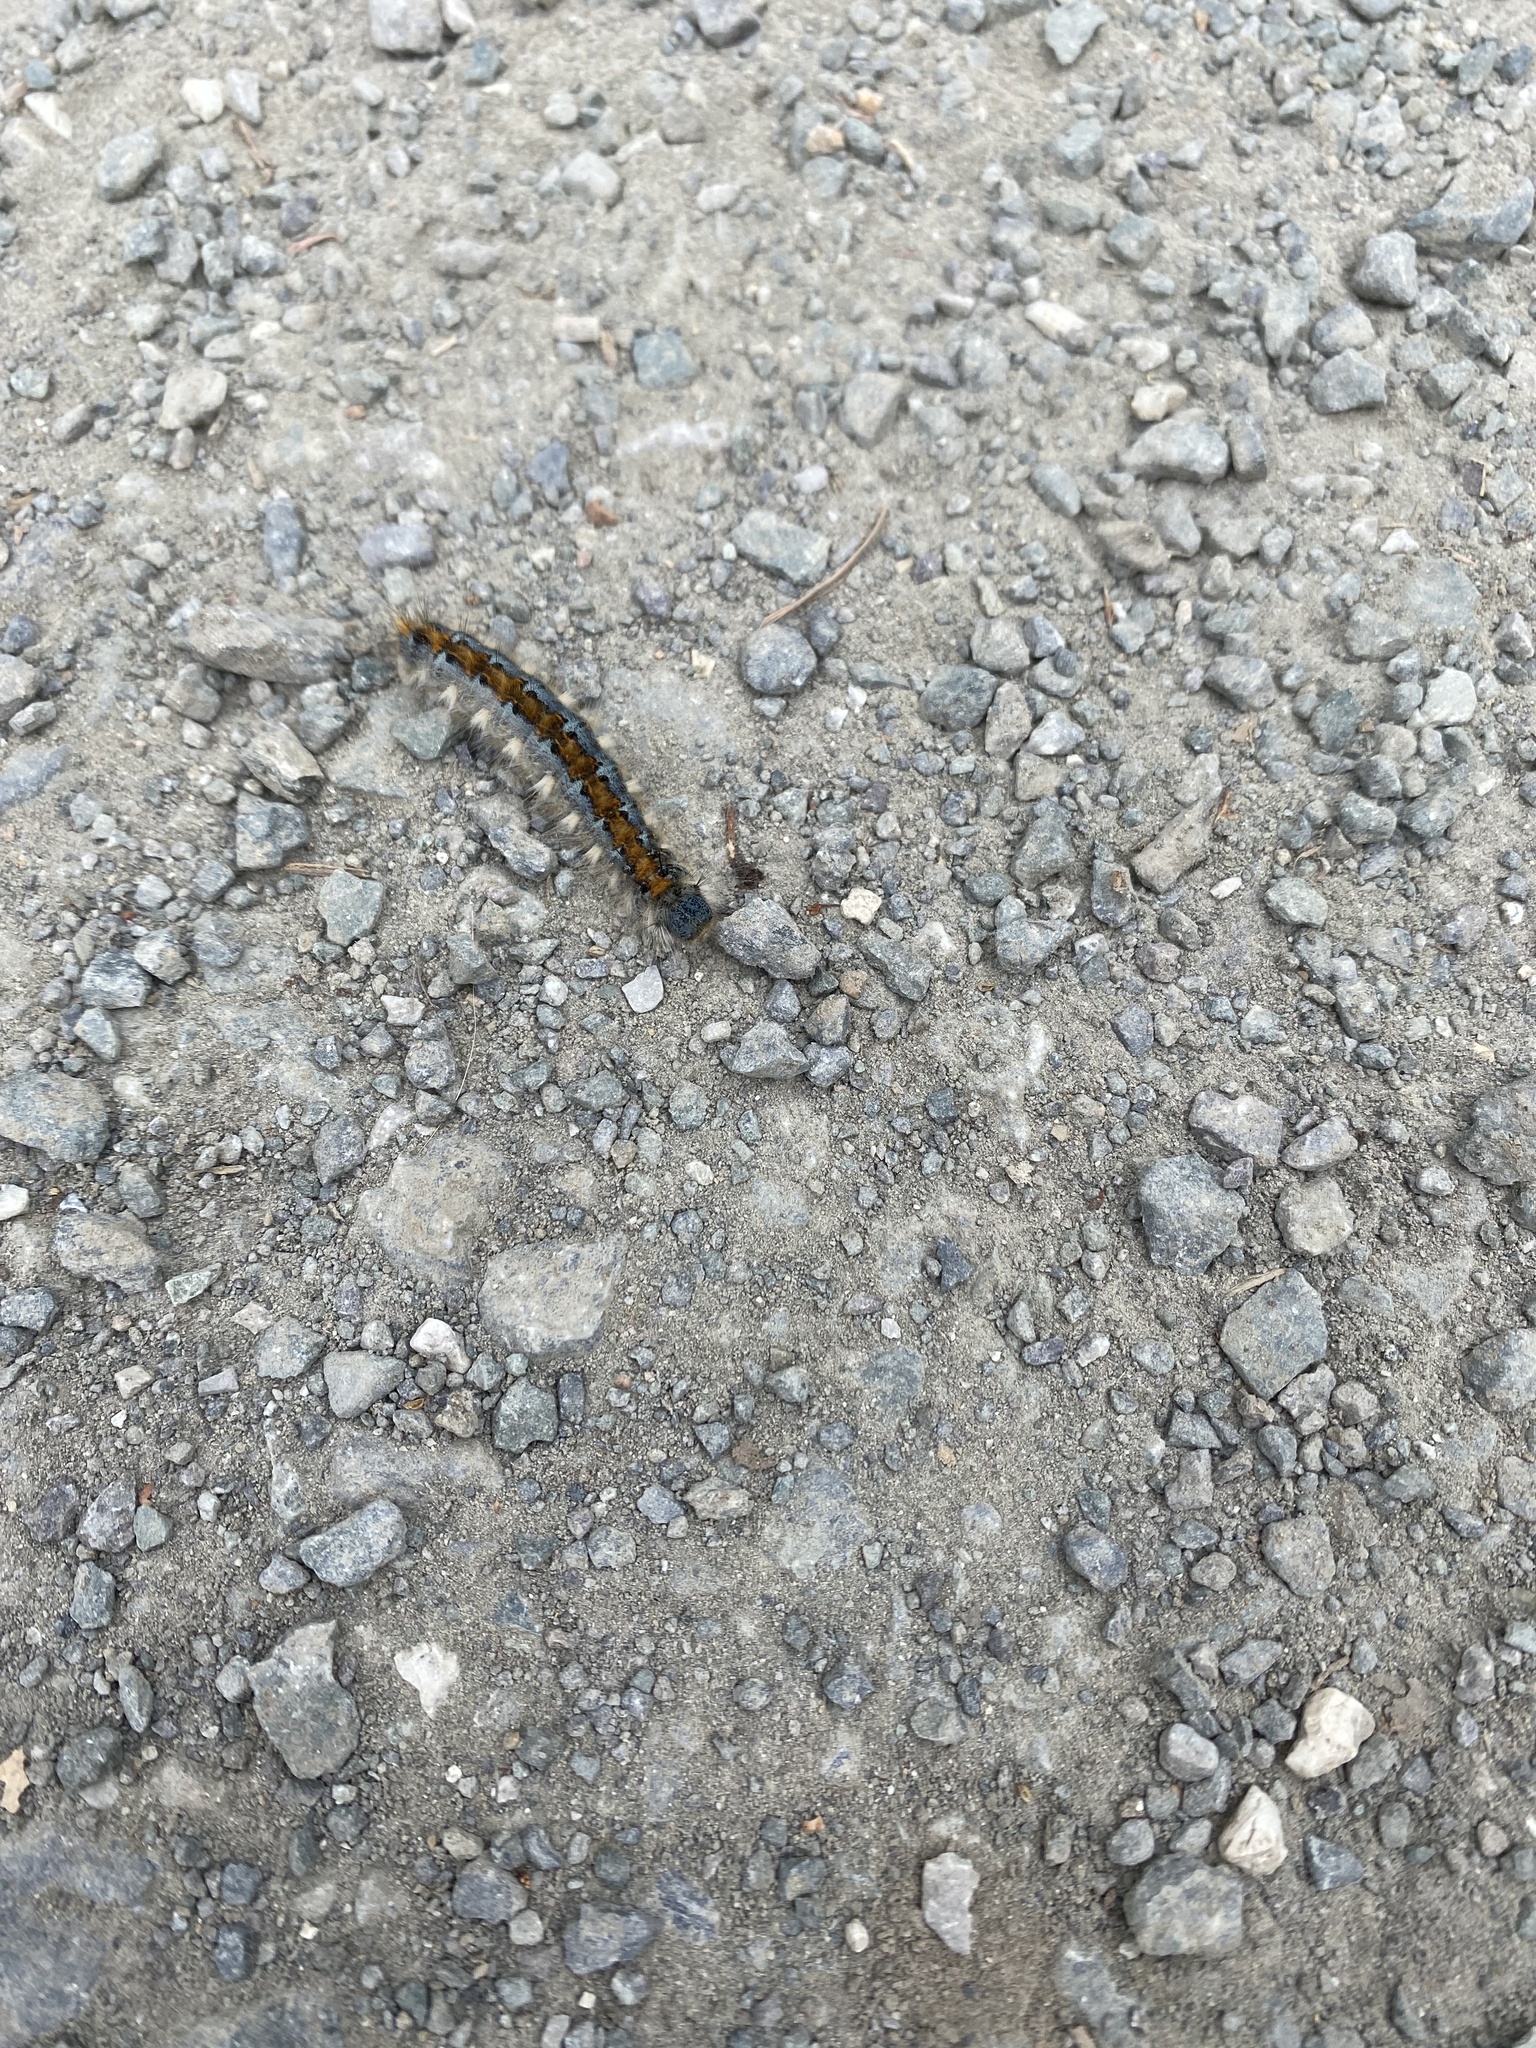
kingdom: Animalia
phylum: Arthropoda
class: Insecta
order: Lepidoptera
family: Lasiocampidae
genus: Malacosoma
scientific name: Malacosoma constricta
